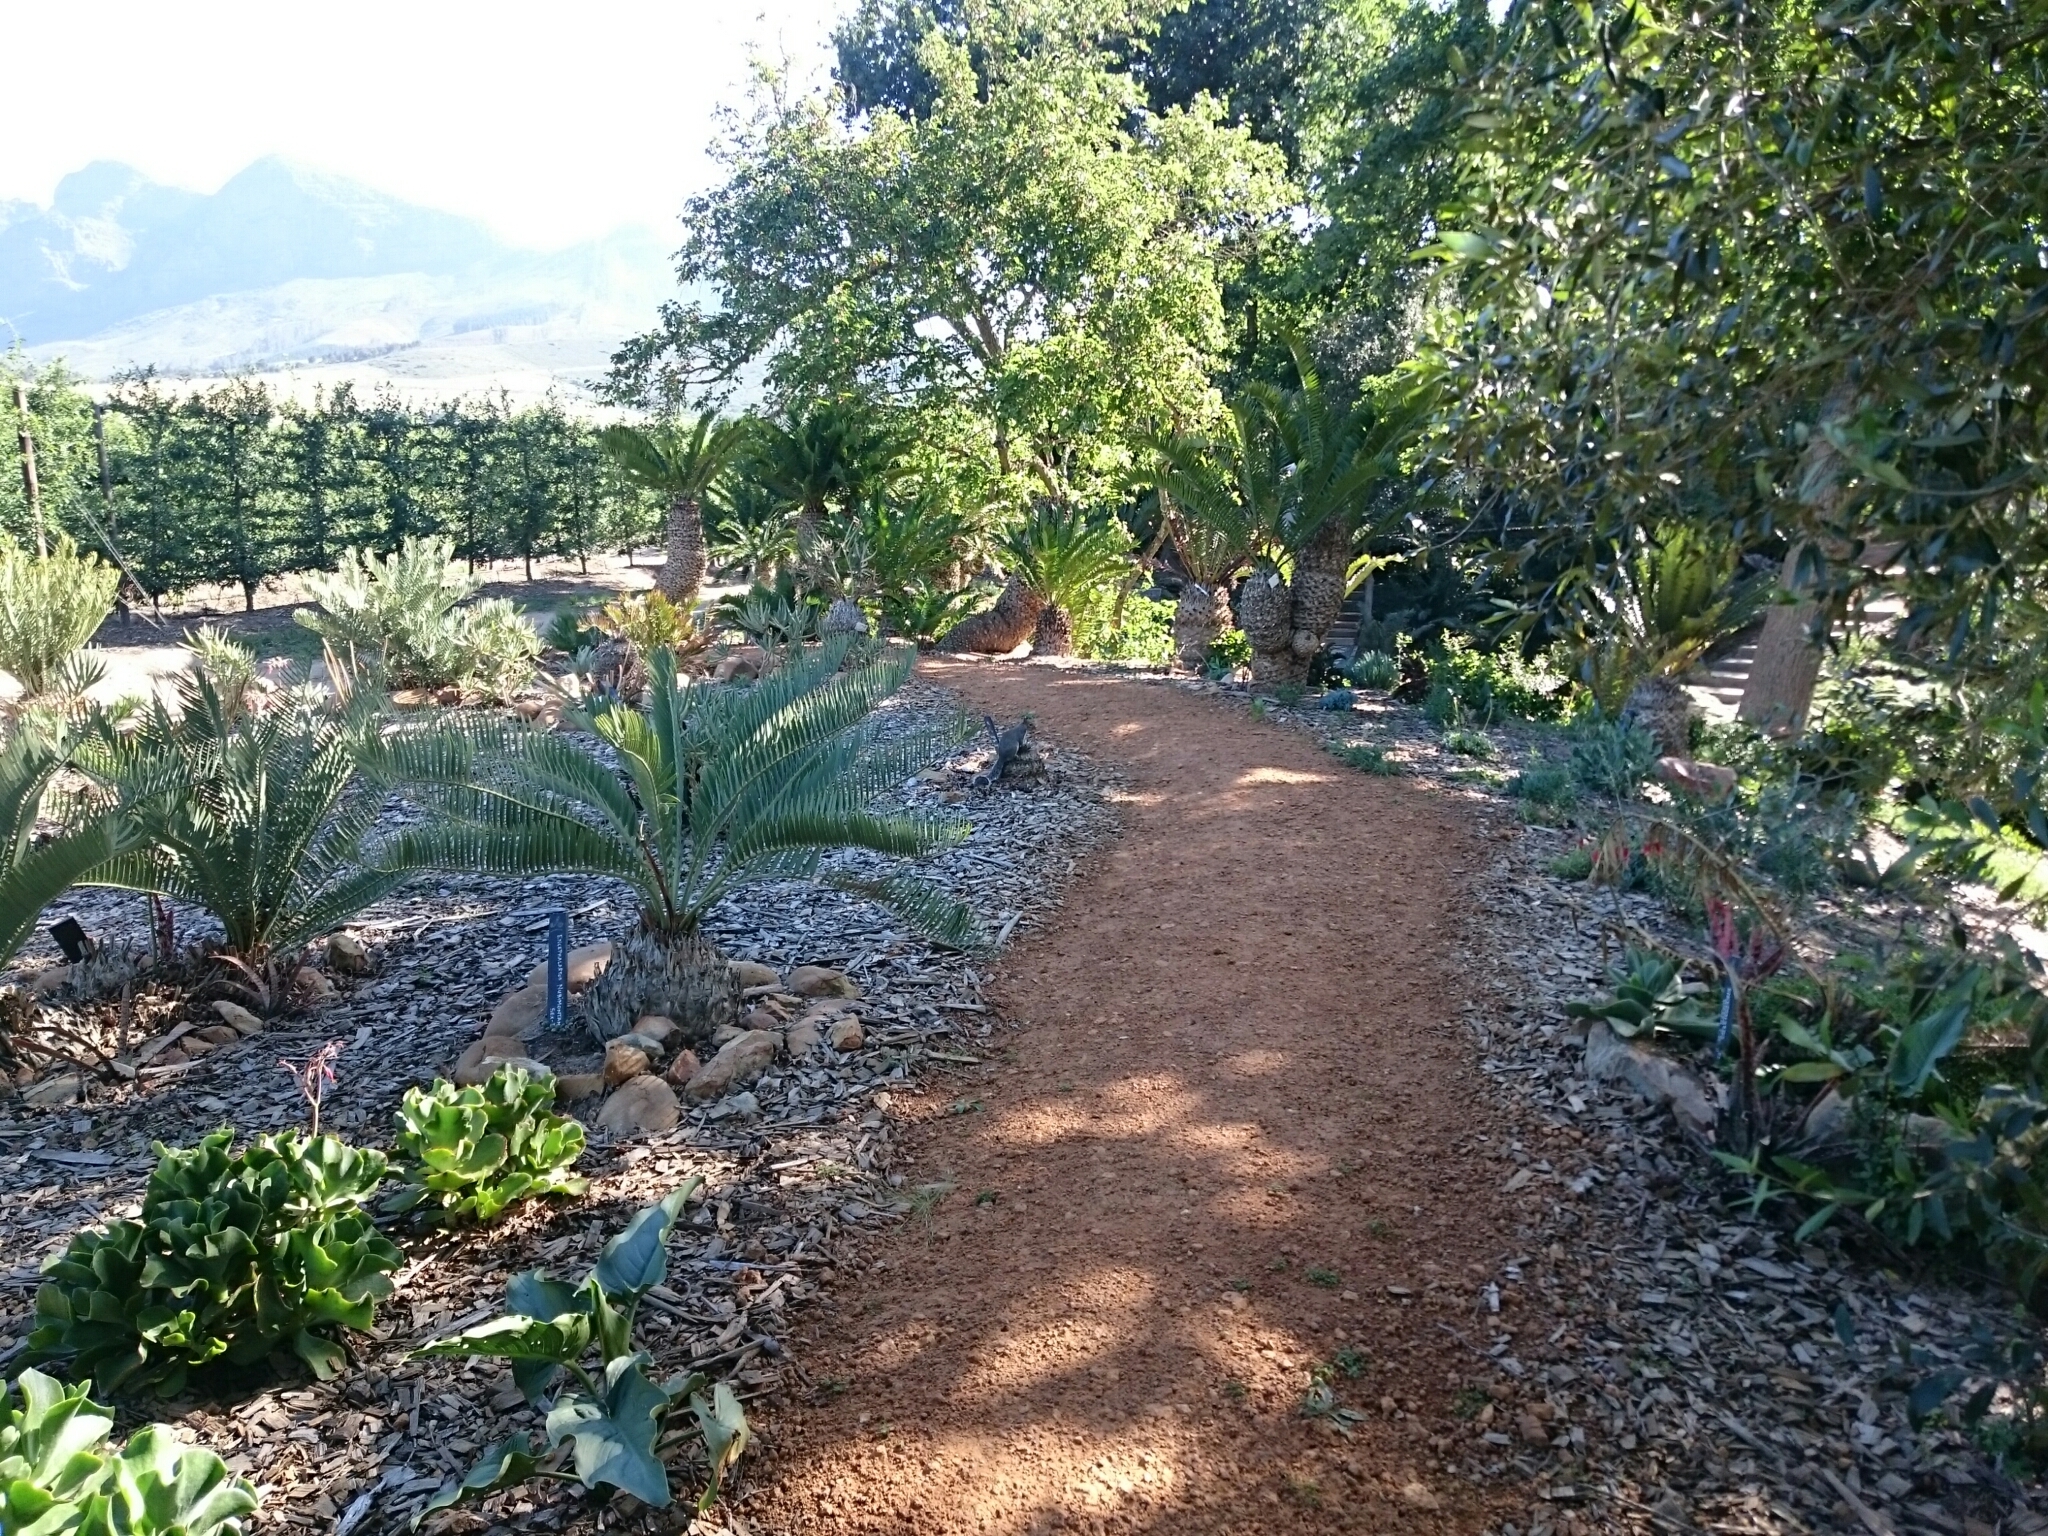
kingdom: Animalia
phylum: Chordata
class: Mammalia
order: Rodentia
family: Sciuridae
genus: Sciurus
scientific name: Sciurus carolinensis
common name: Eastern gray squirrel
